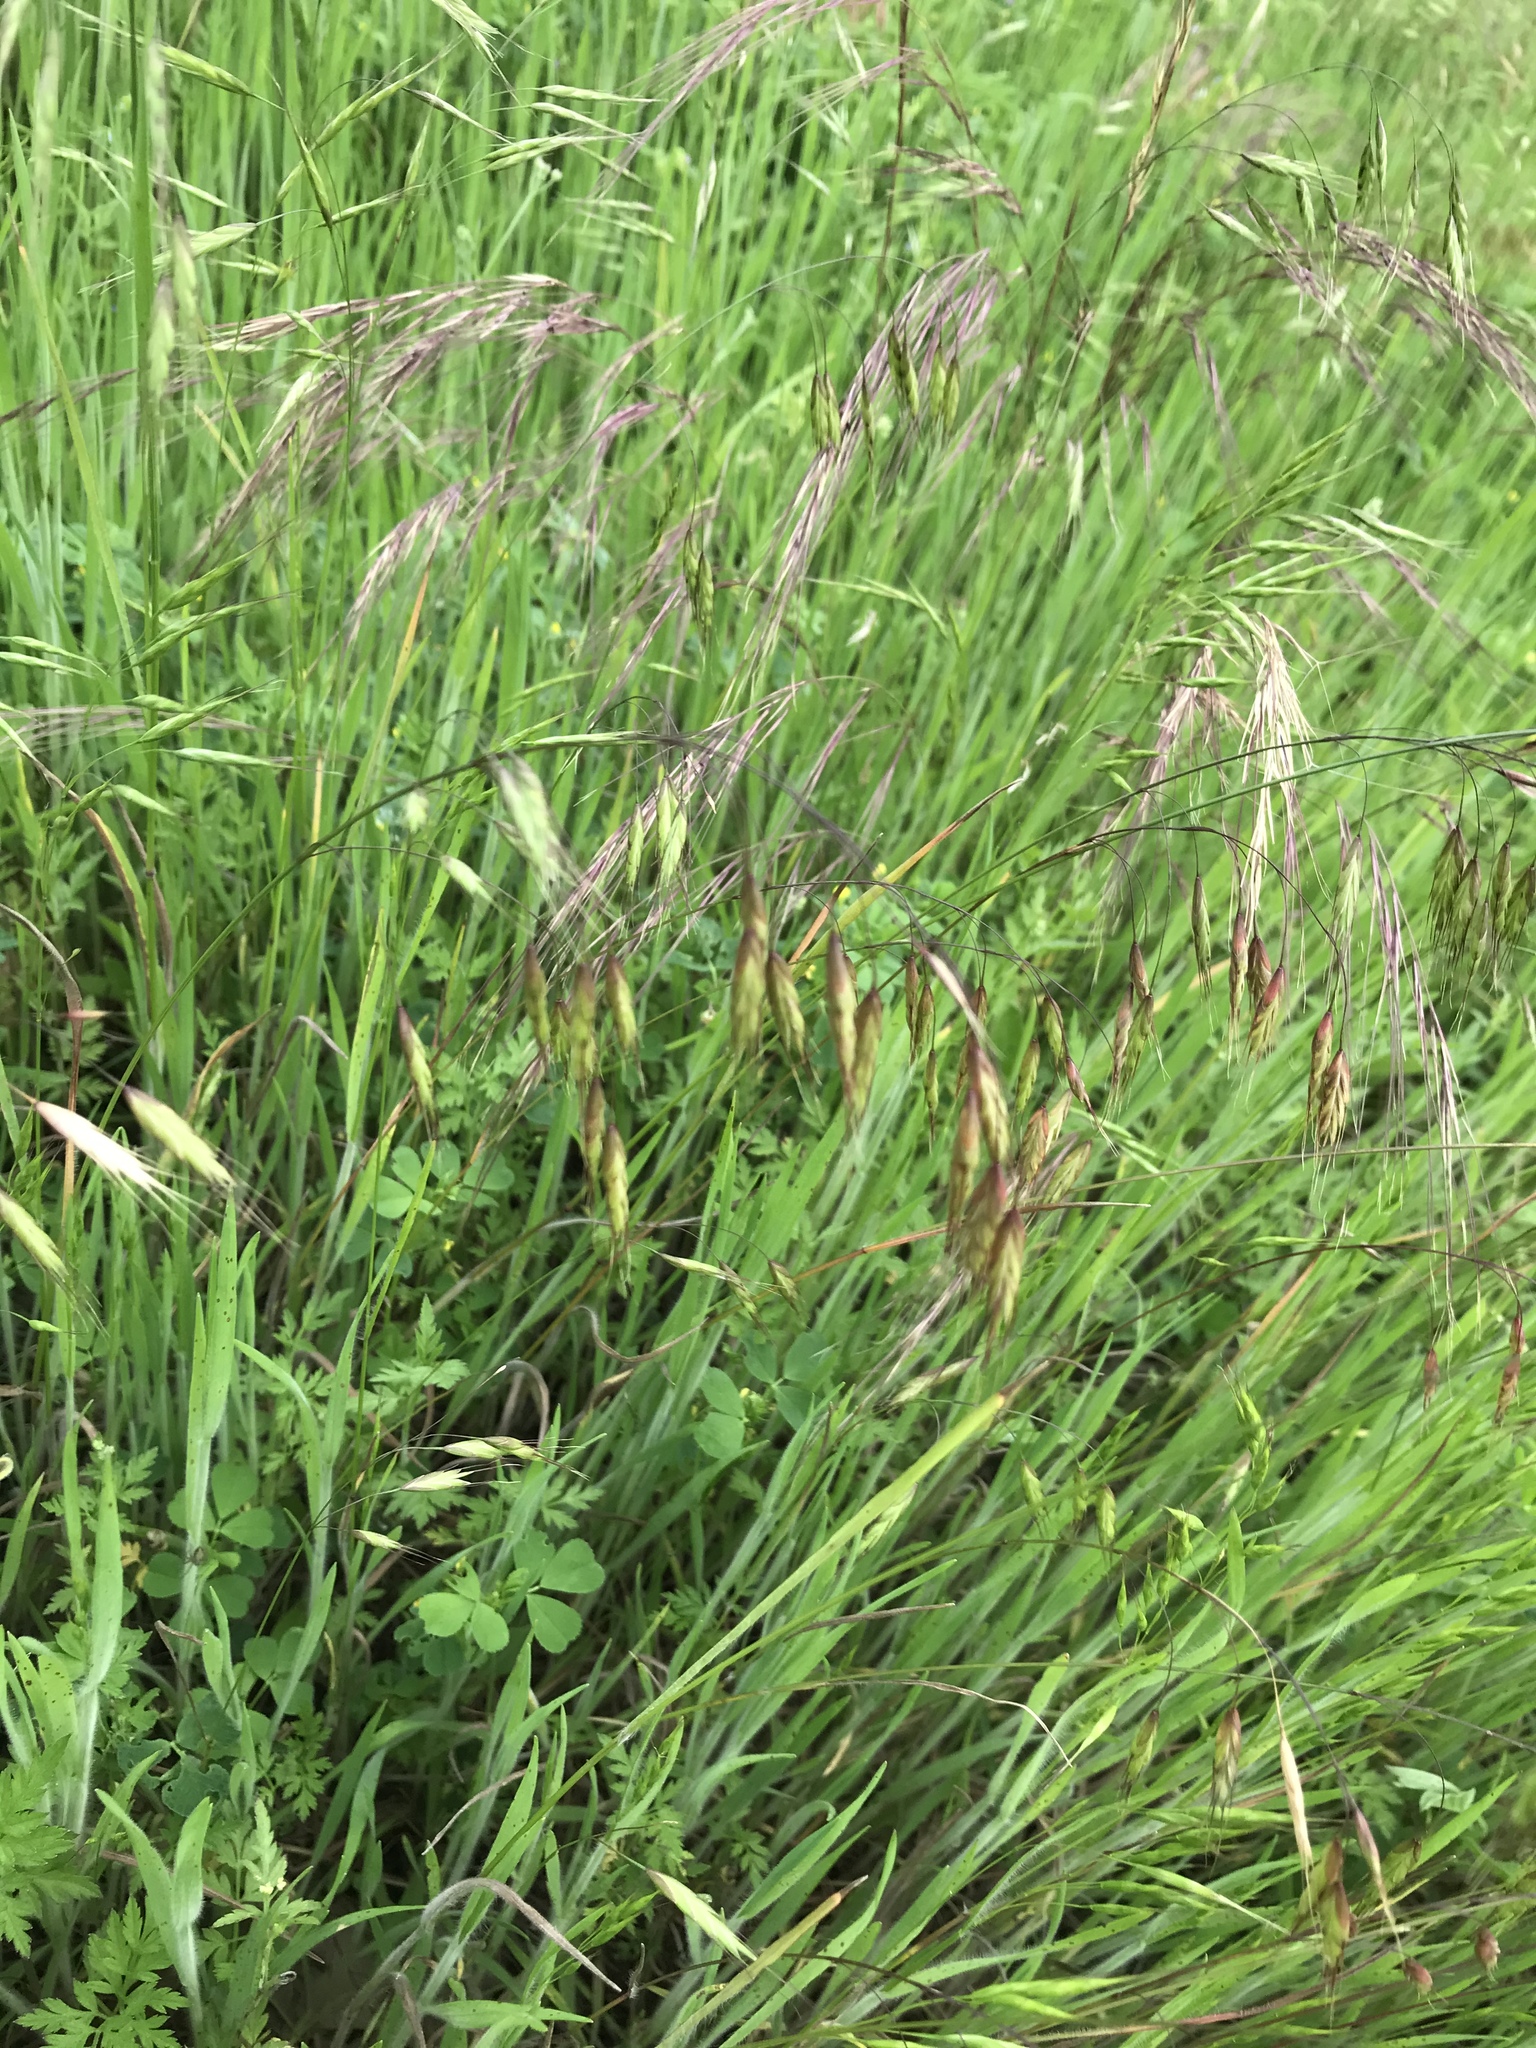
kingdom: Plantae
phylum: Tracheophyta
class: Liliopsida
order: Poales
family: Poaceae
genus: Bromus
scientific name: Bromus japonicus
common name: Japanese brome
